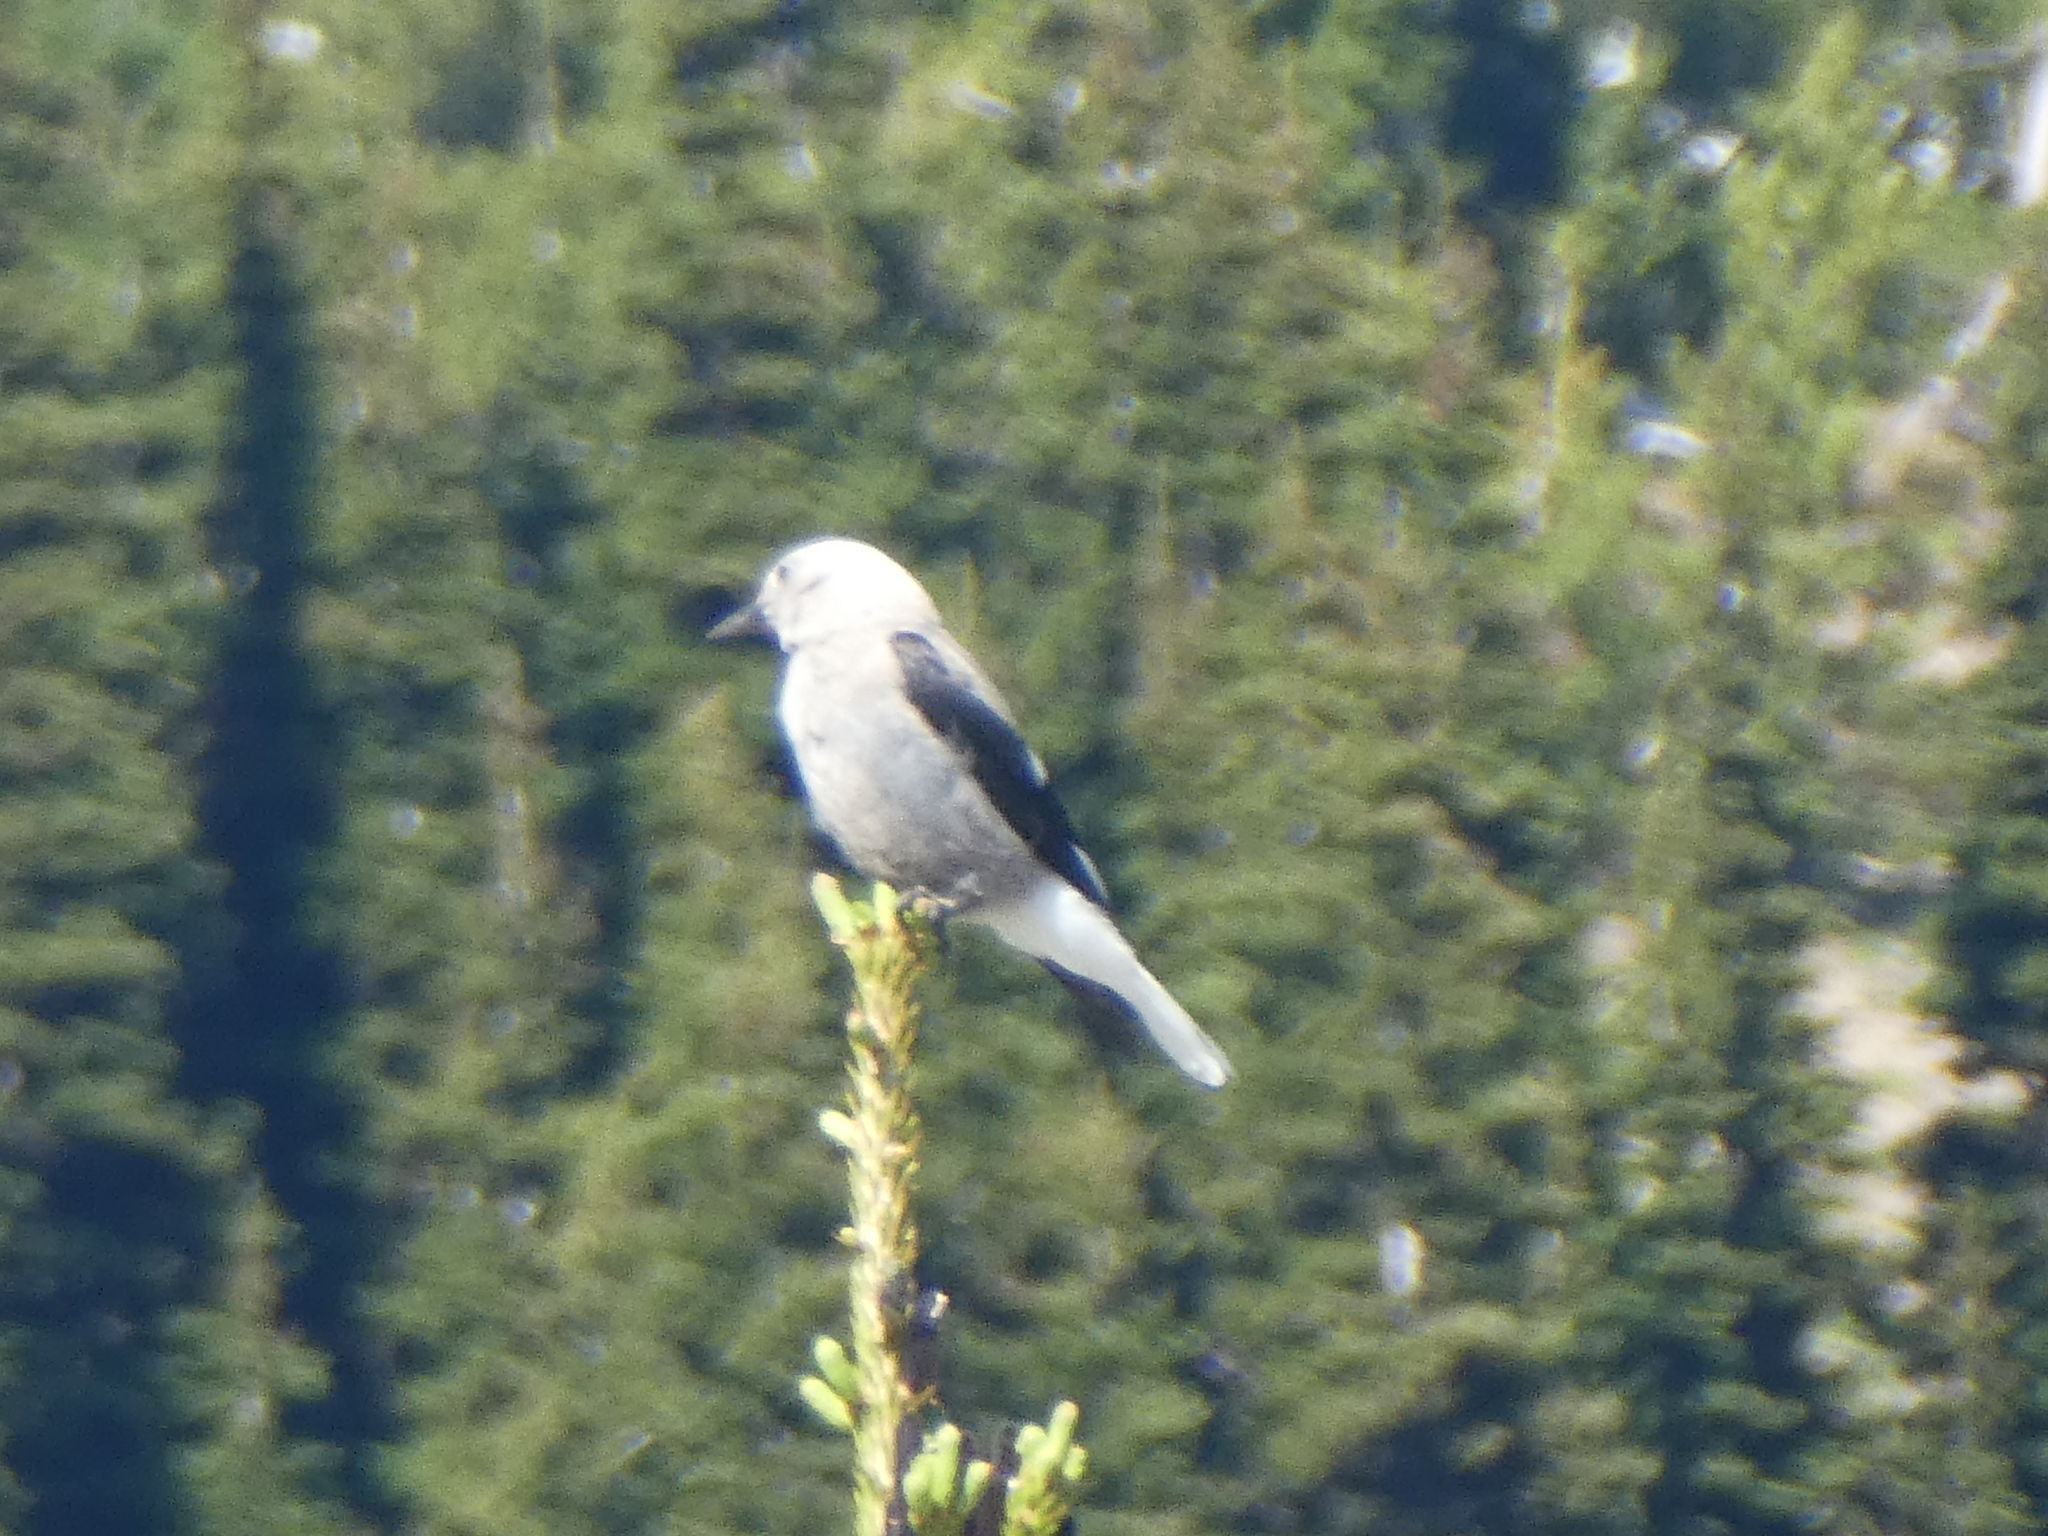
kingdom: Animalia
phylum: Chordata
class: Aves
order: Passeriformes
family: Corvidae
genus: Nucifraga
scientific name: Nucifraga columbiana
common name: Clark's nutcracker
